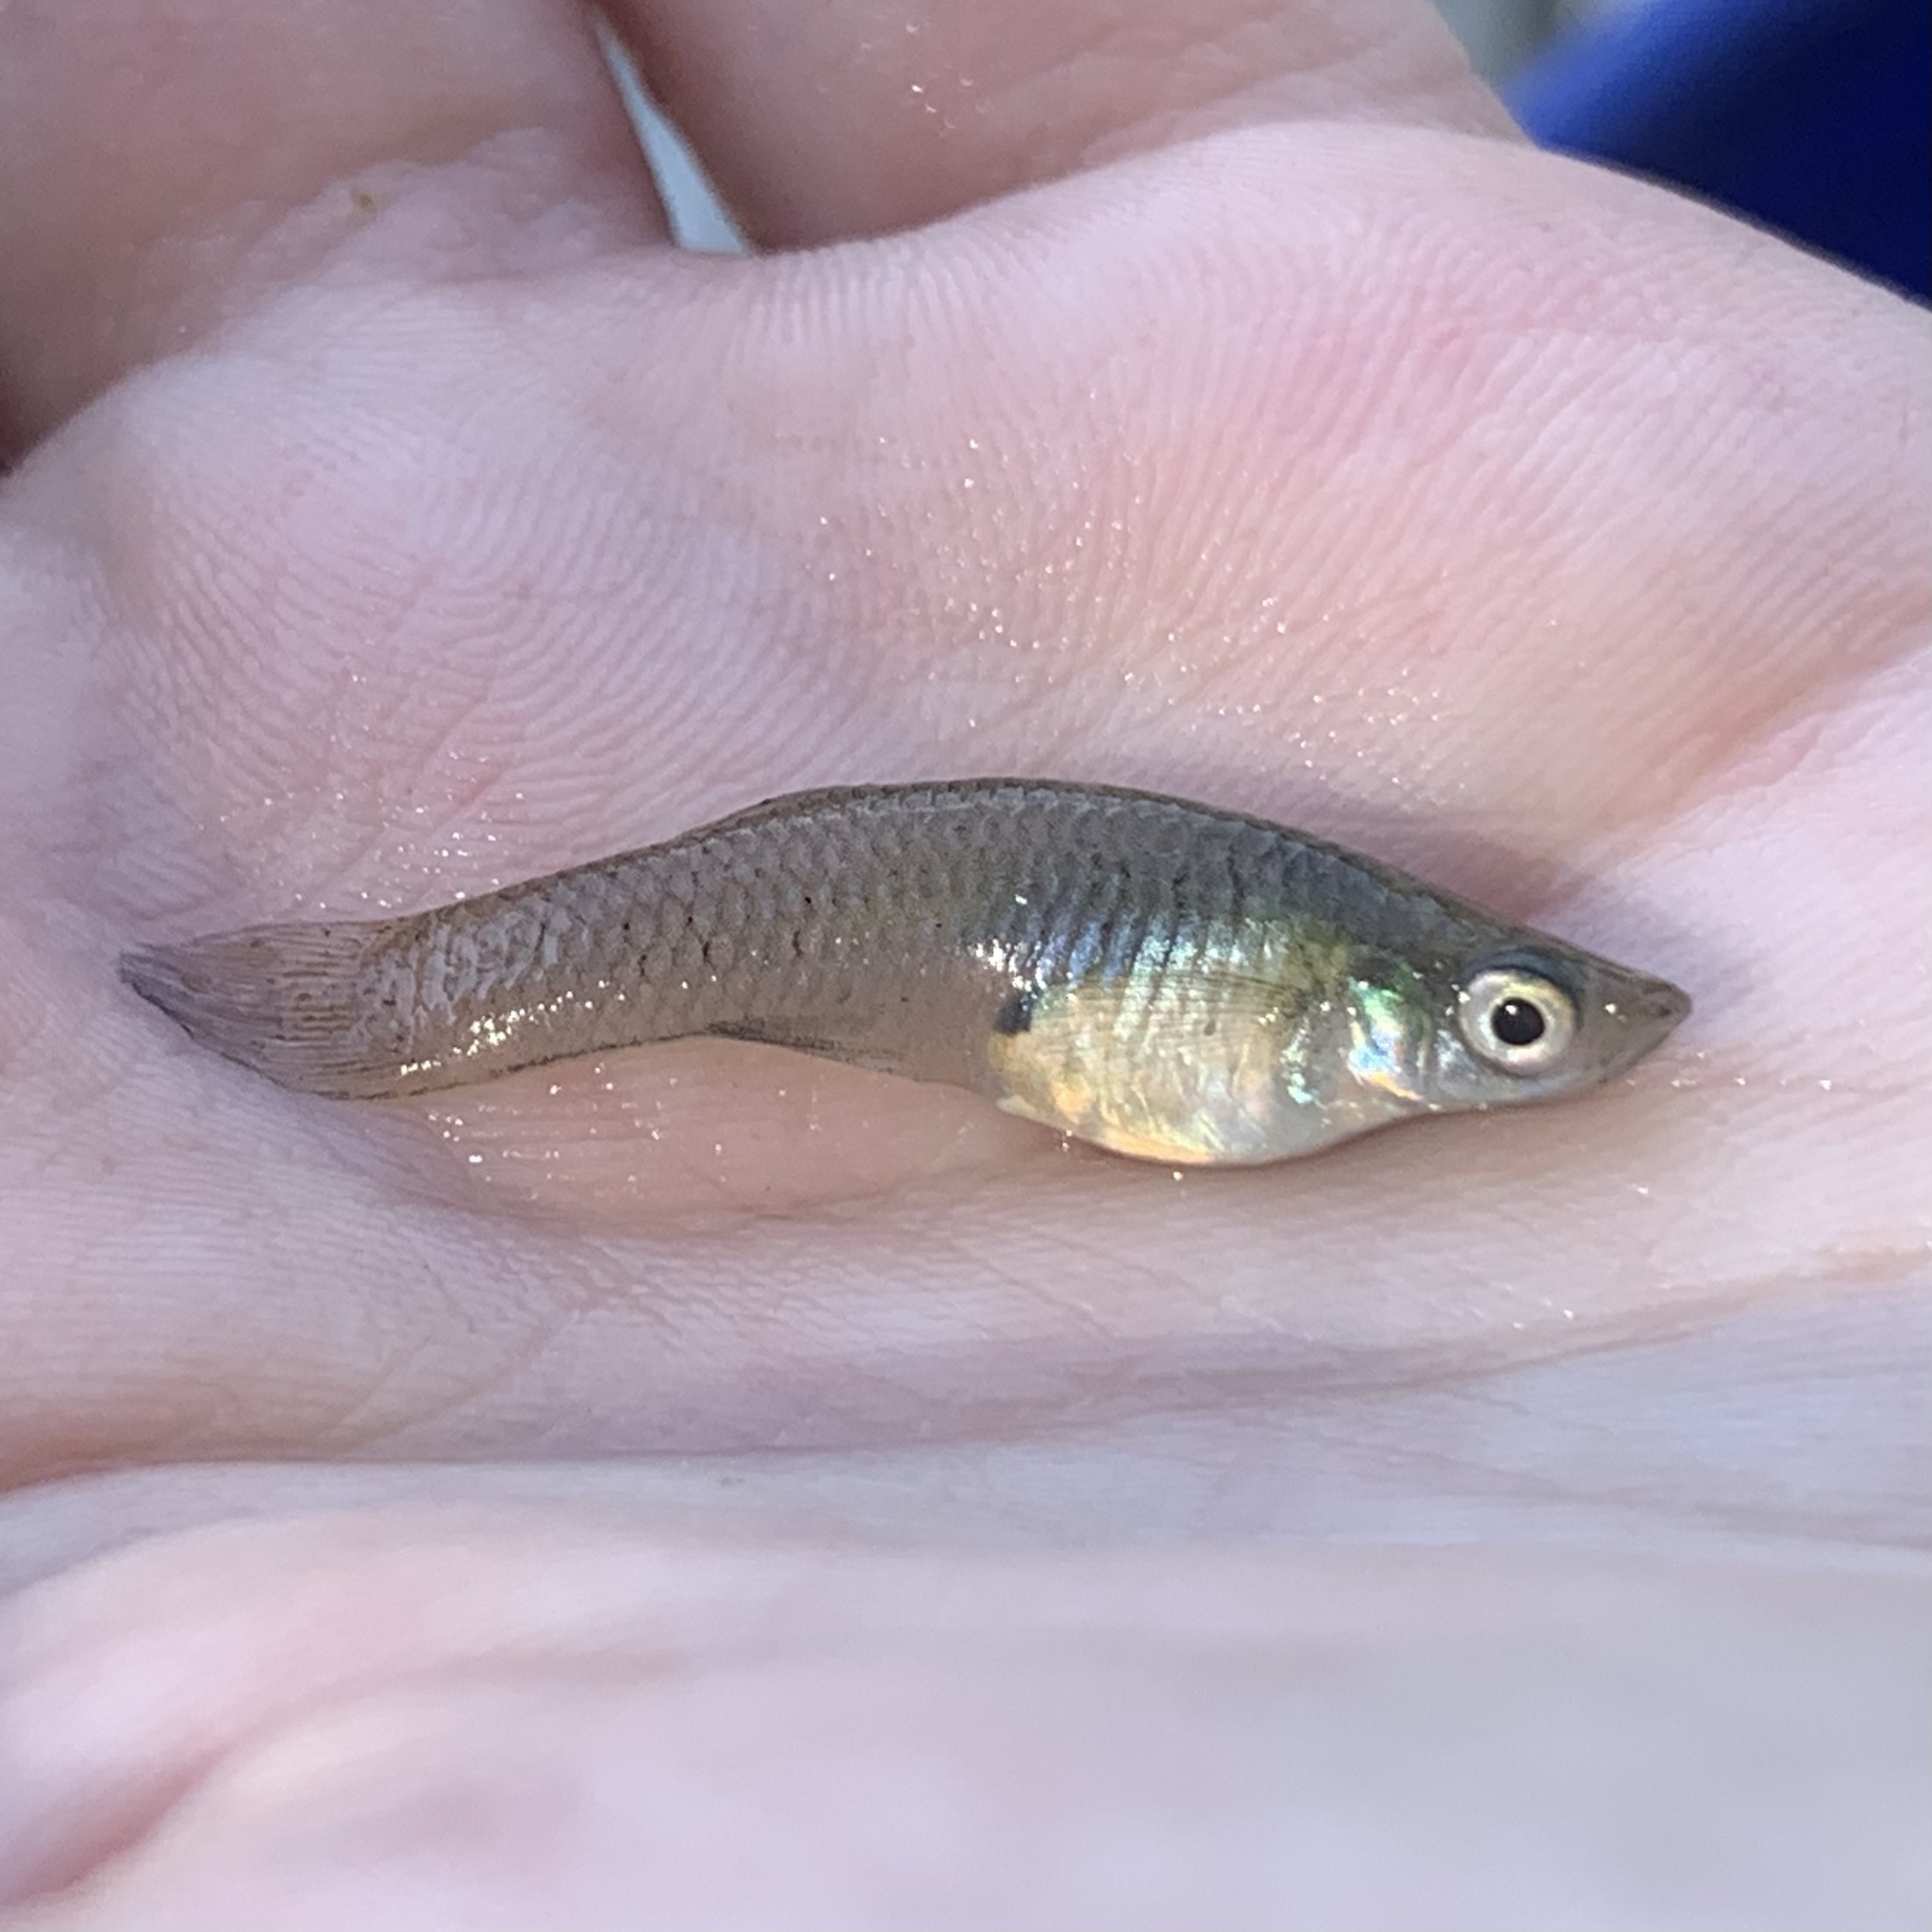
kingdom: Animalia
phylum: Chordata
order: Cyprinodontiformes
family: Poeciliidae
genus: Gambusia
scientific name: Gambusia affinis
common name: Mosquitofish
